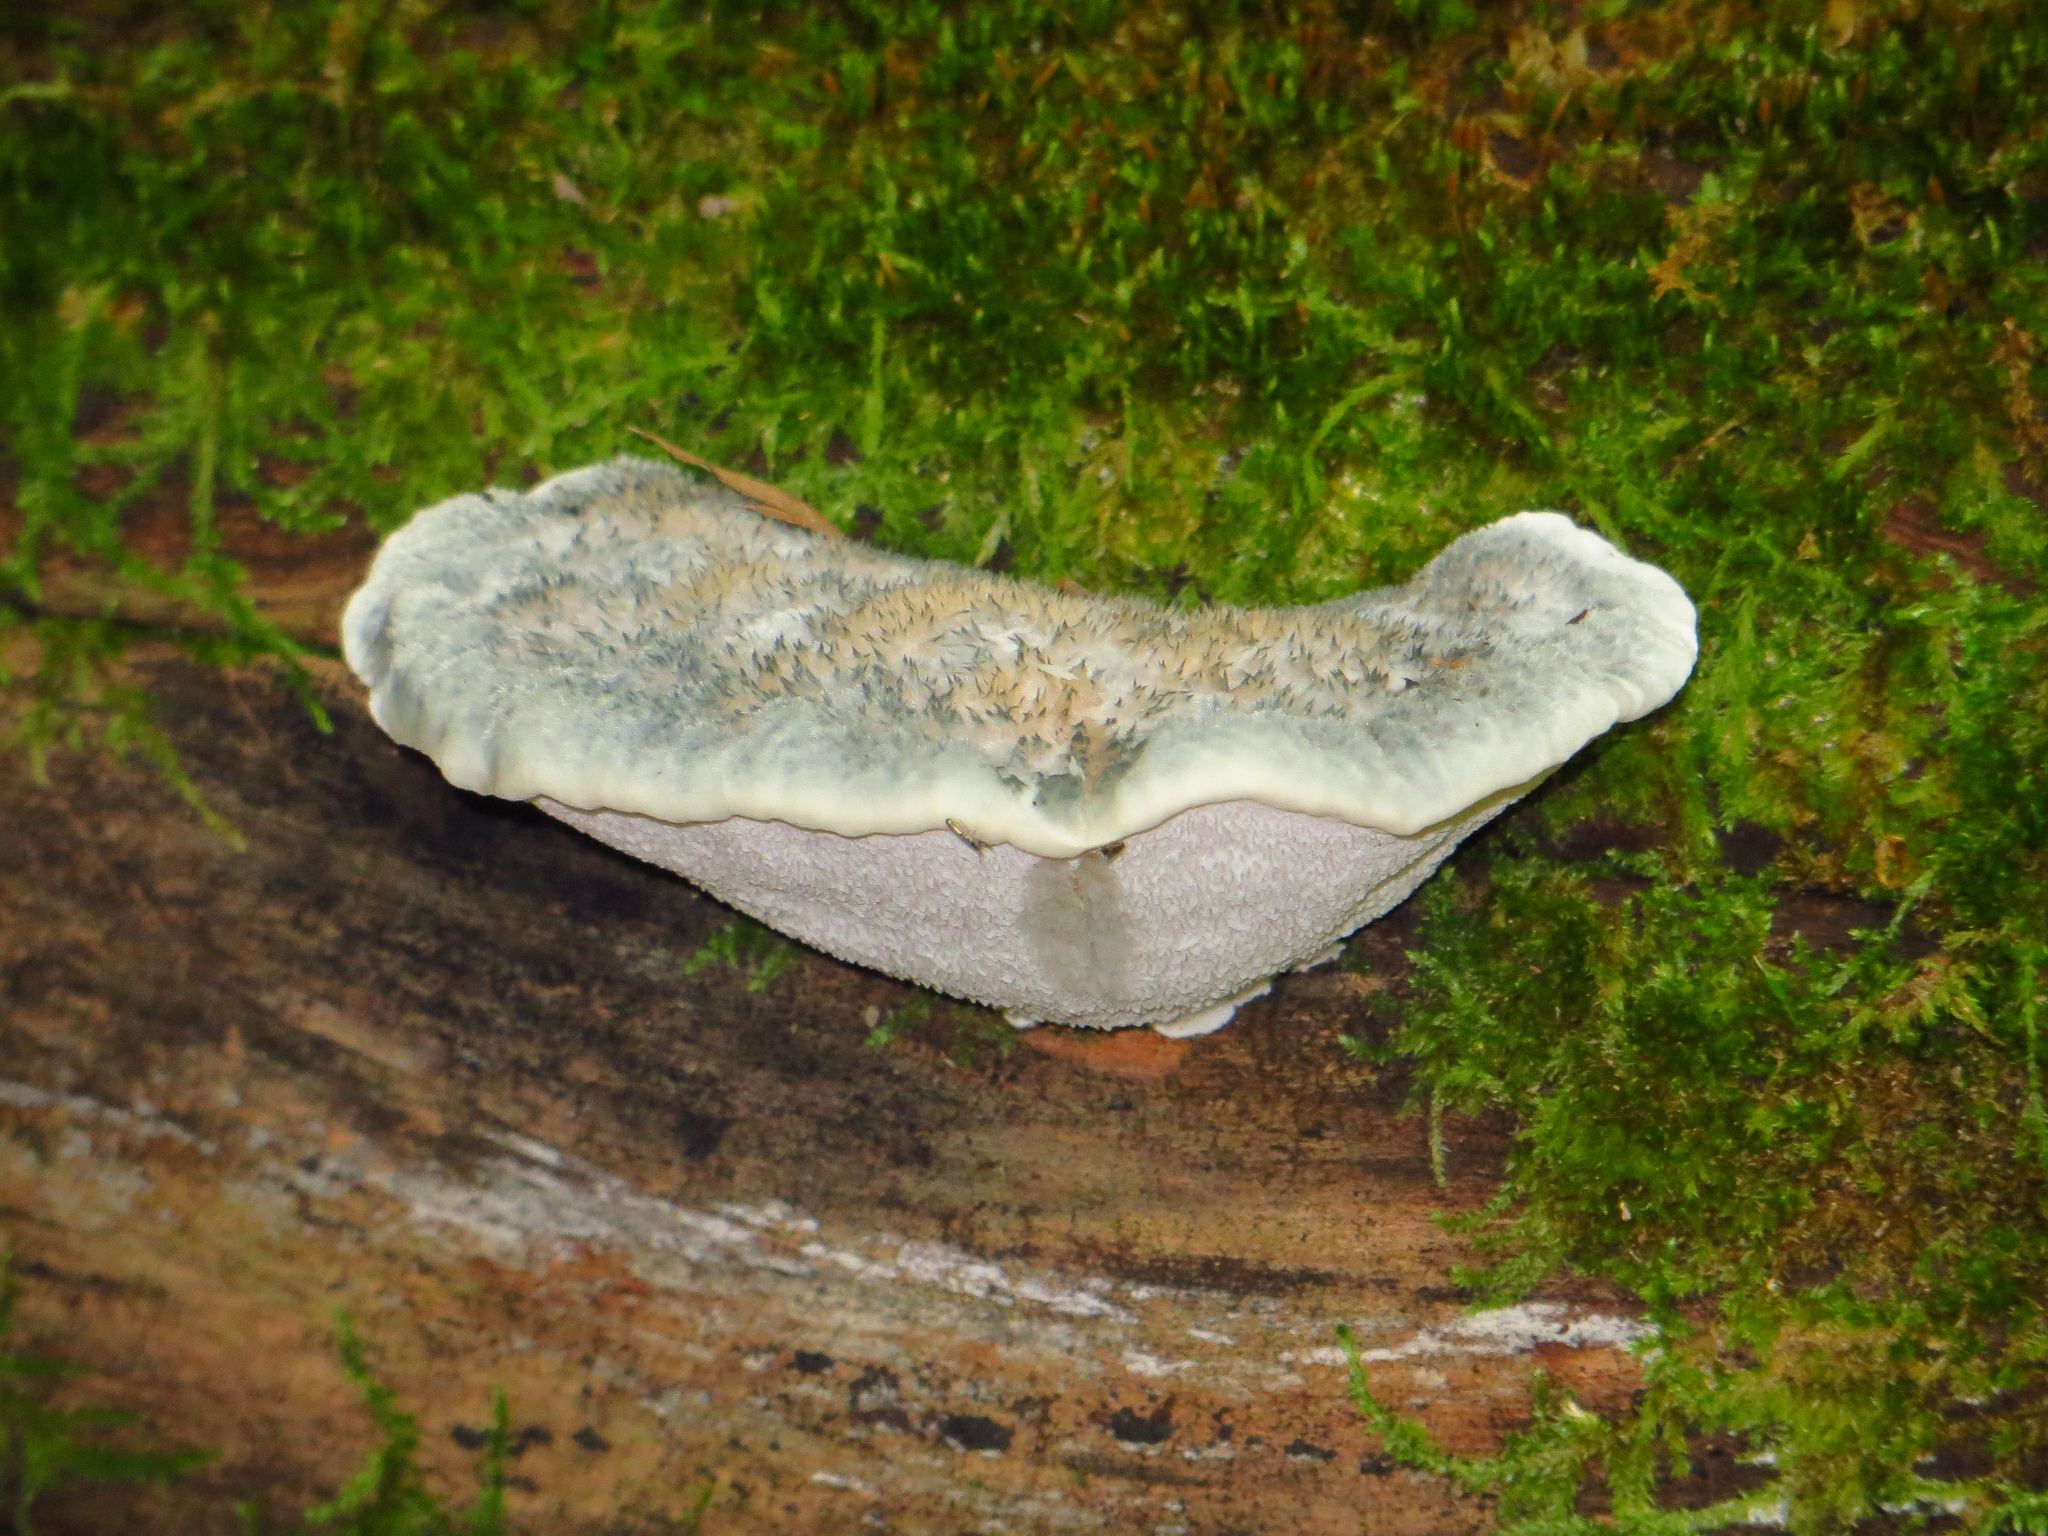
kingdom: Fungi
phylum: Basidiomycota
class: Agaricomycetes
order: Polyporales
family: Polyporaceae
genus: Cyanosporus
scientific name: Cyanosporus caesius
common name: Blue cheese polypore
